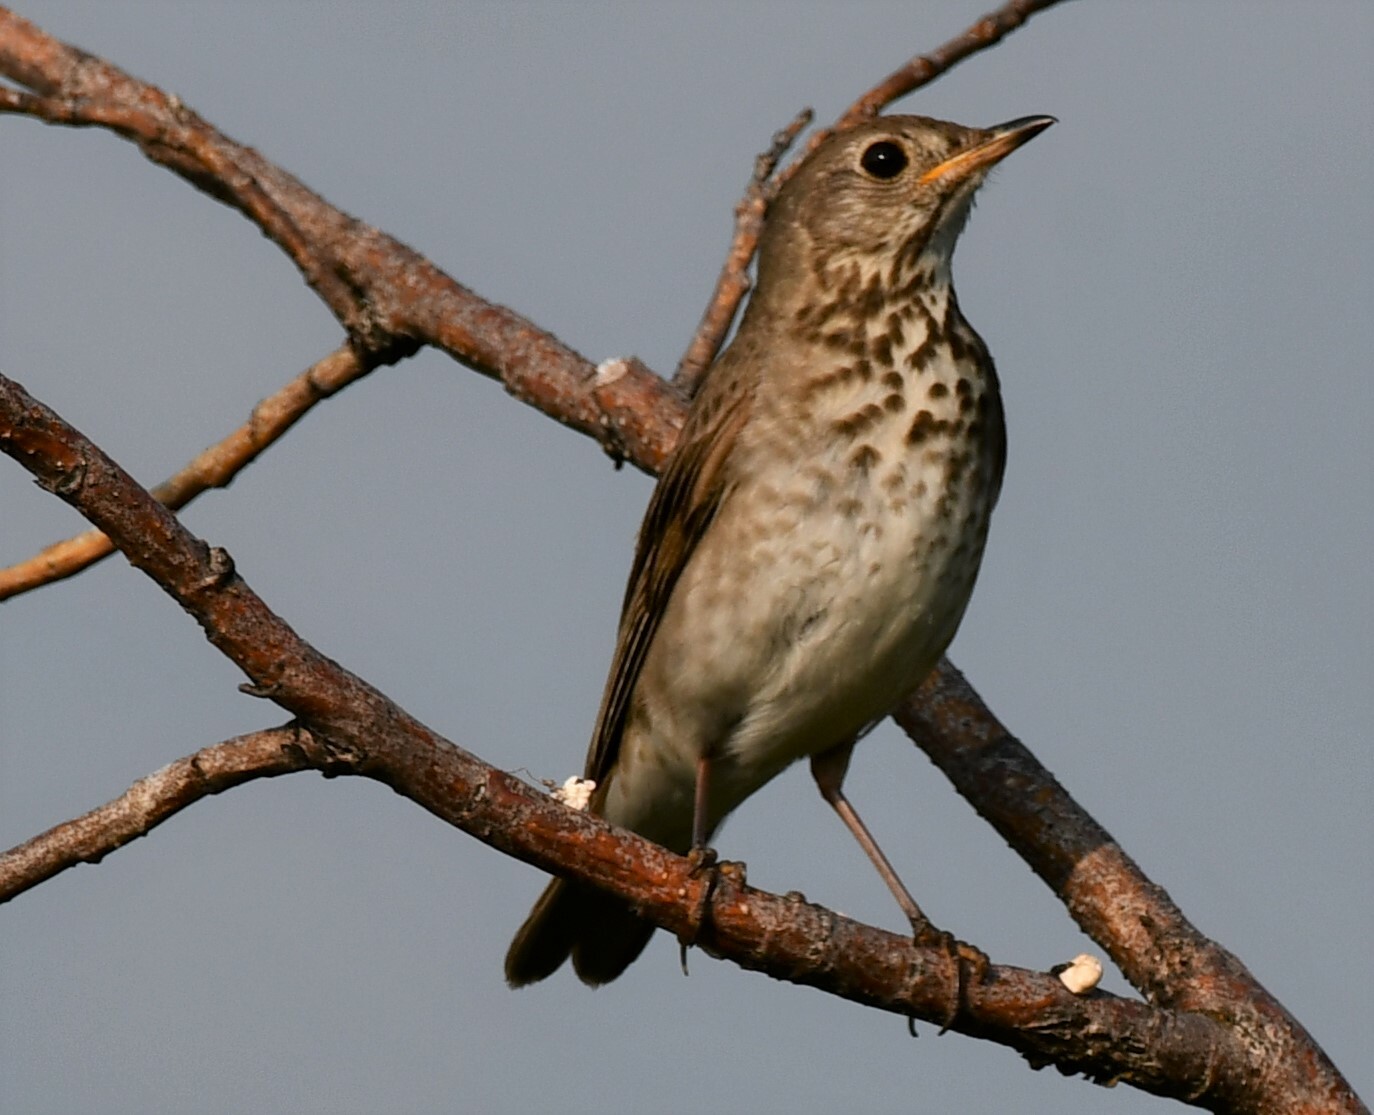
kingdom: Animalia
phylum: Chordata
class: Aves
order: Passeriformes
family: Turdidae
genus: Catharus
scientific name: Catharus minimus
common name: Grey-cheeked thrush
